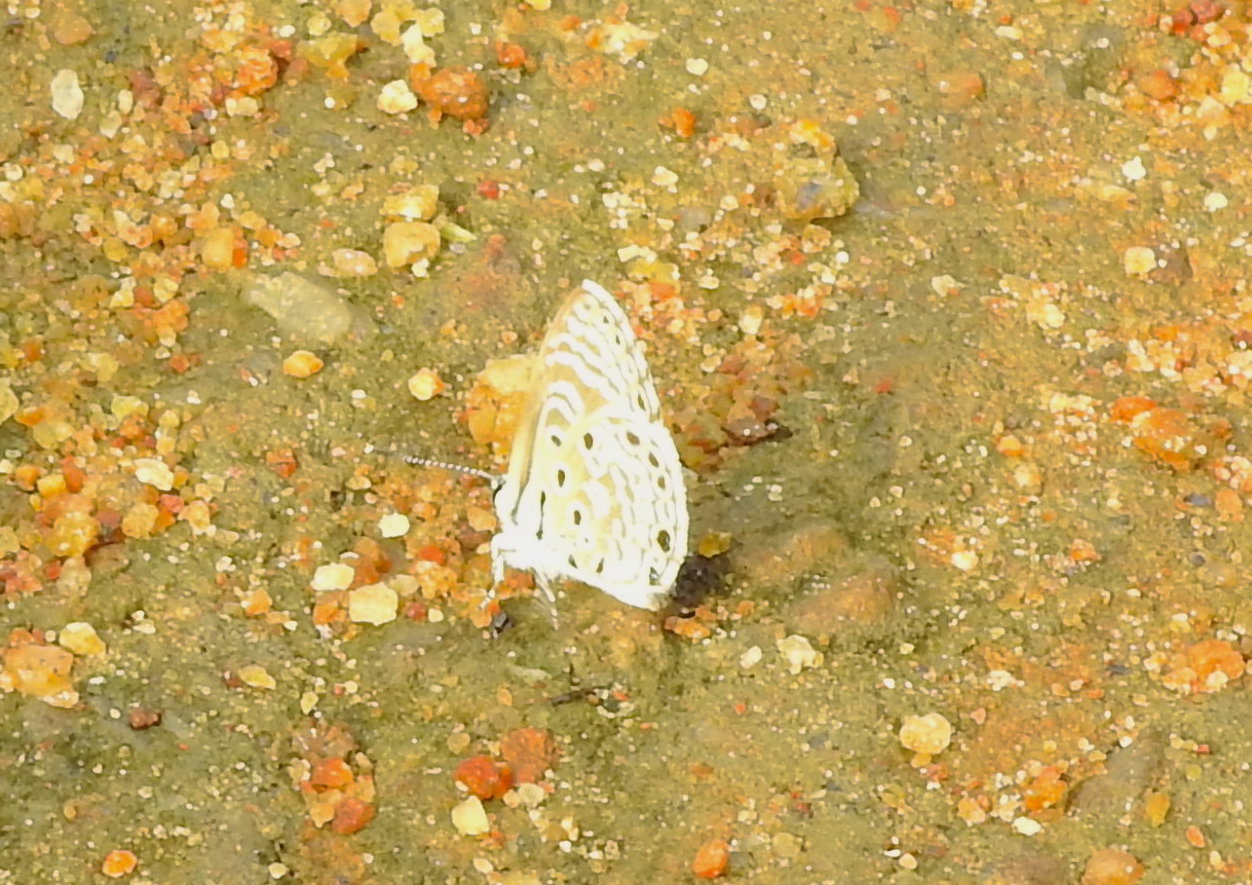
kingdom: Animalia
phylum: Arthropoda
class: Insecta
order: Lepidoptera
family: Lycaenidae
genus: Azanus
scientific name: Azanus jesous
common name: African babul blue
